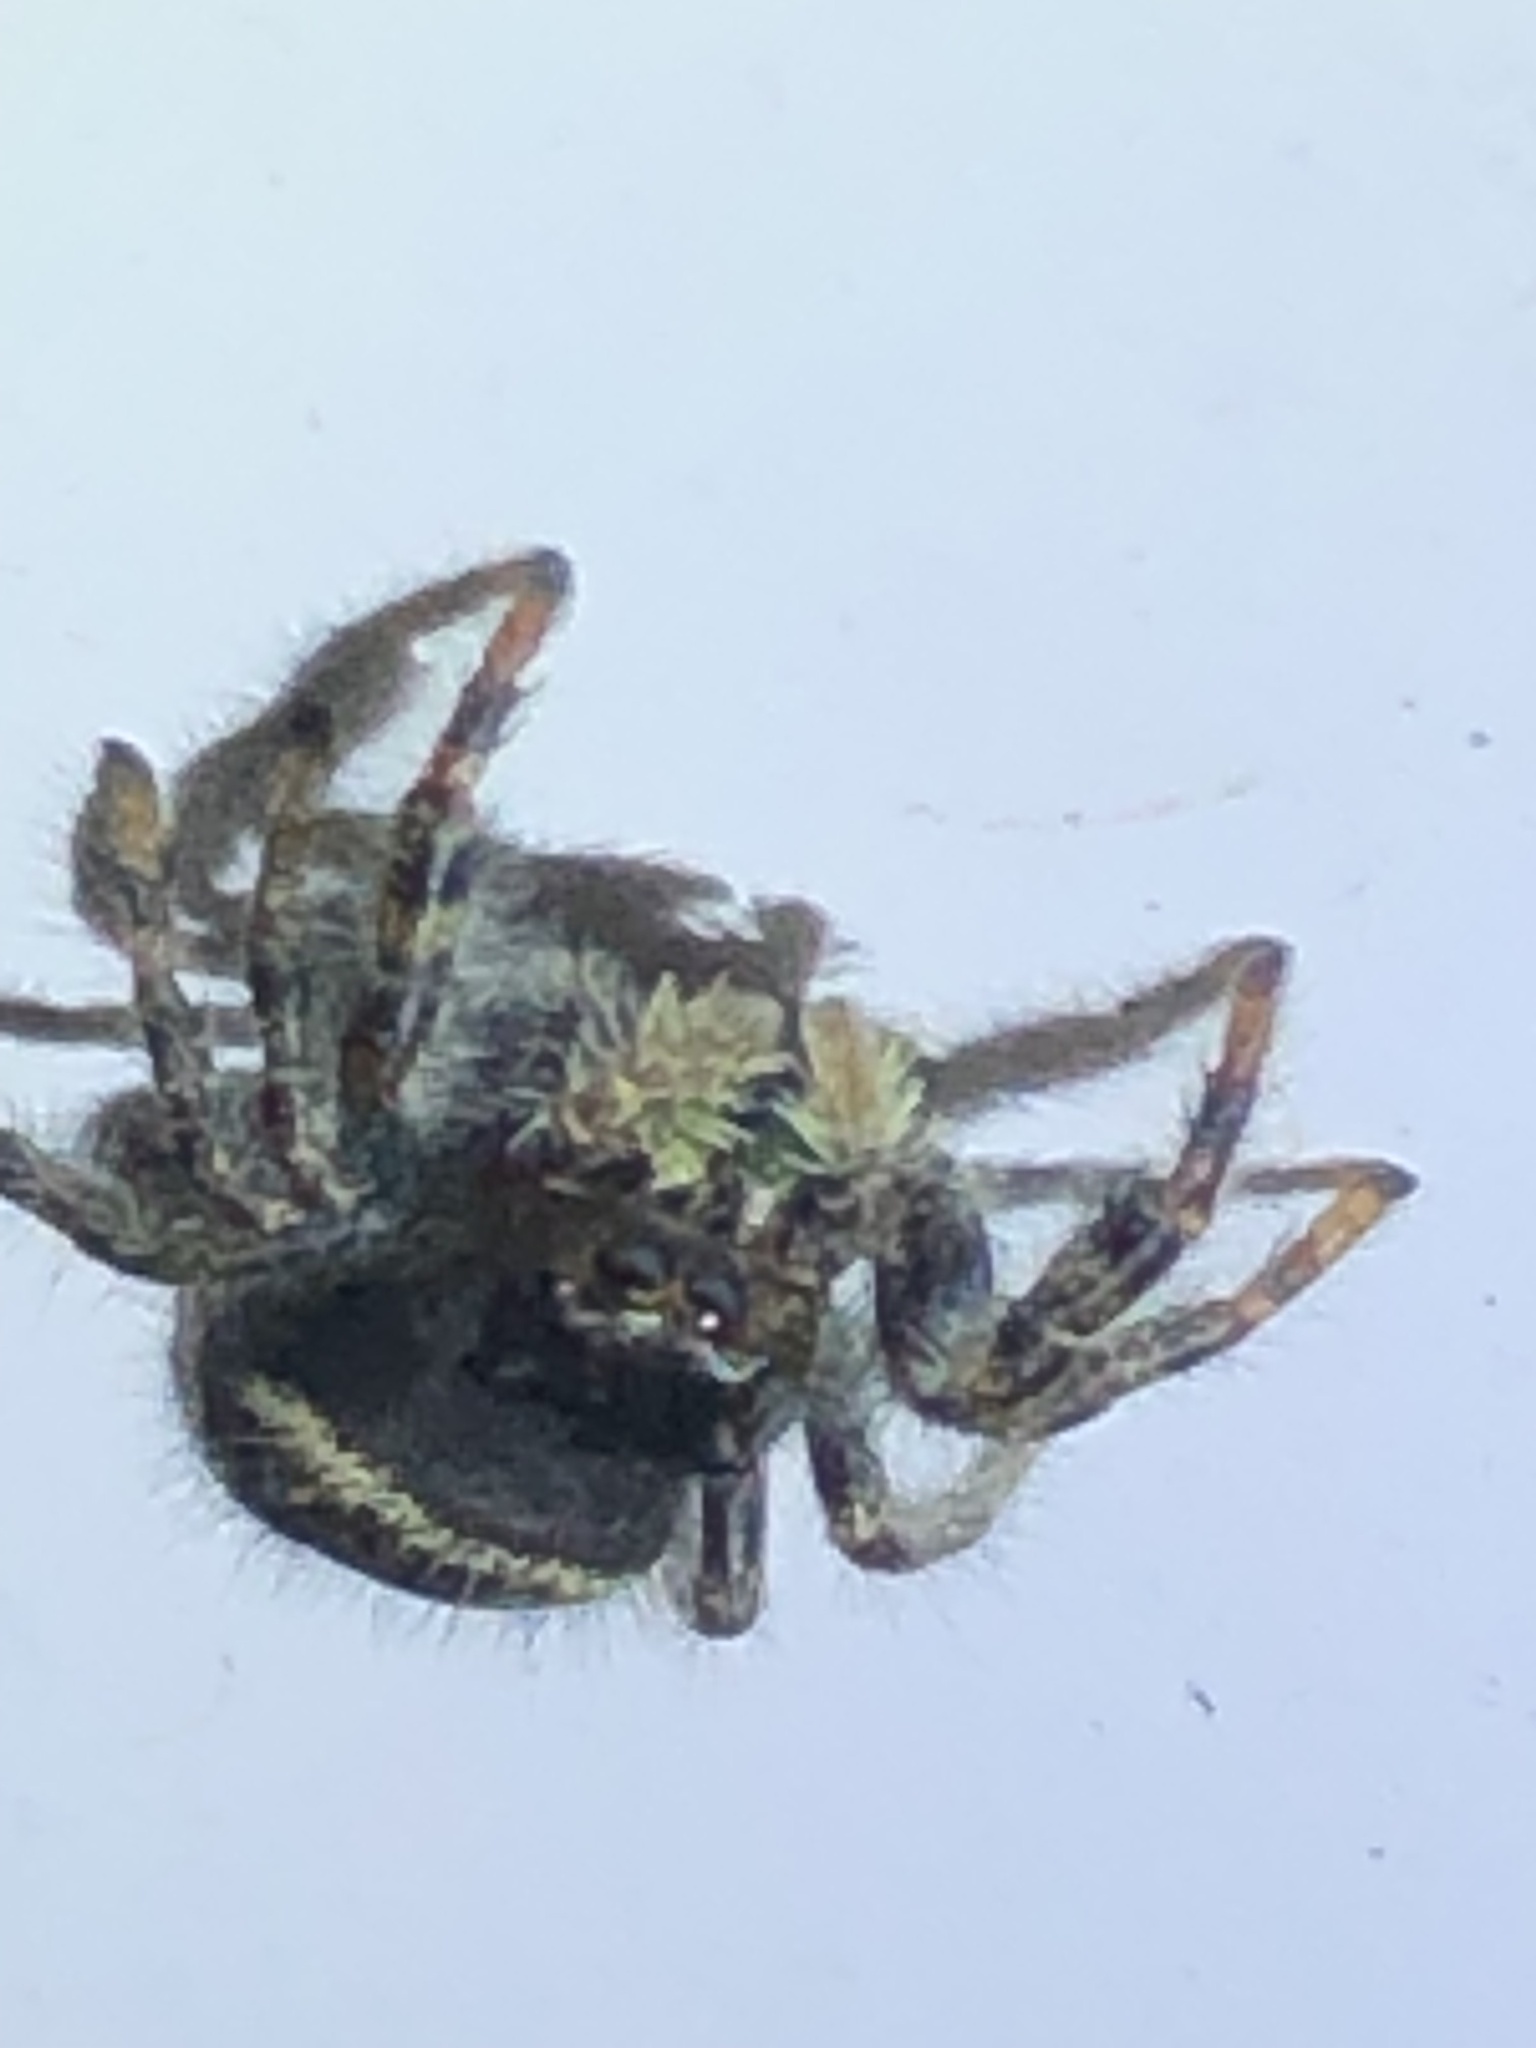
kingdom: Animalia
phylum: Arthropoda
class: Arachnida
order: Araneae
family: Salticidae
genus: Phidippus
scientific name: Phidippus audax
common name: Bold jumper
